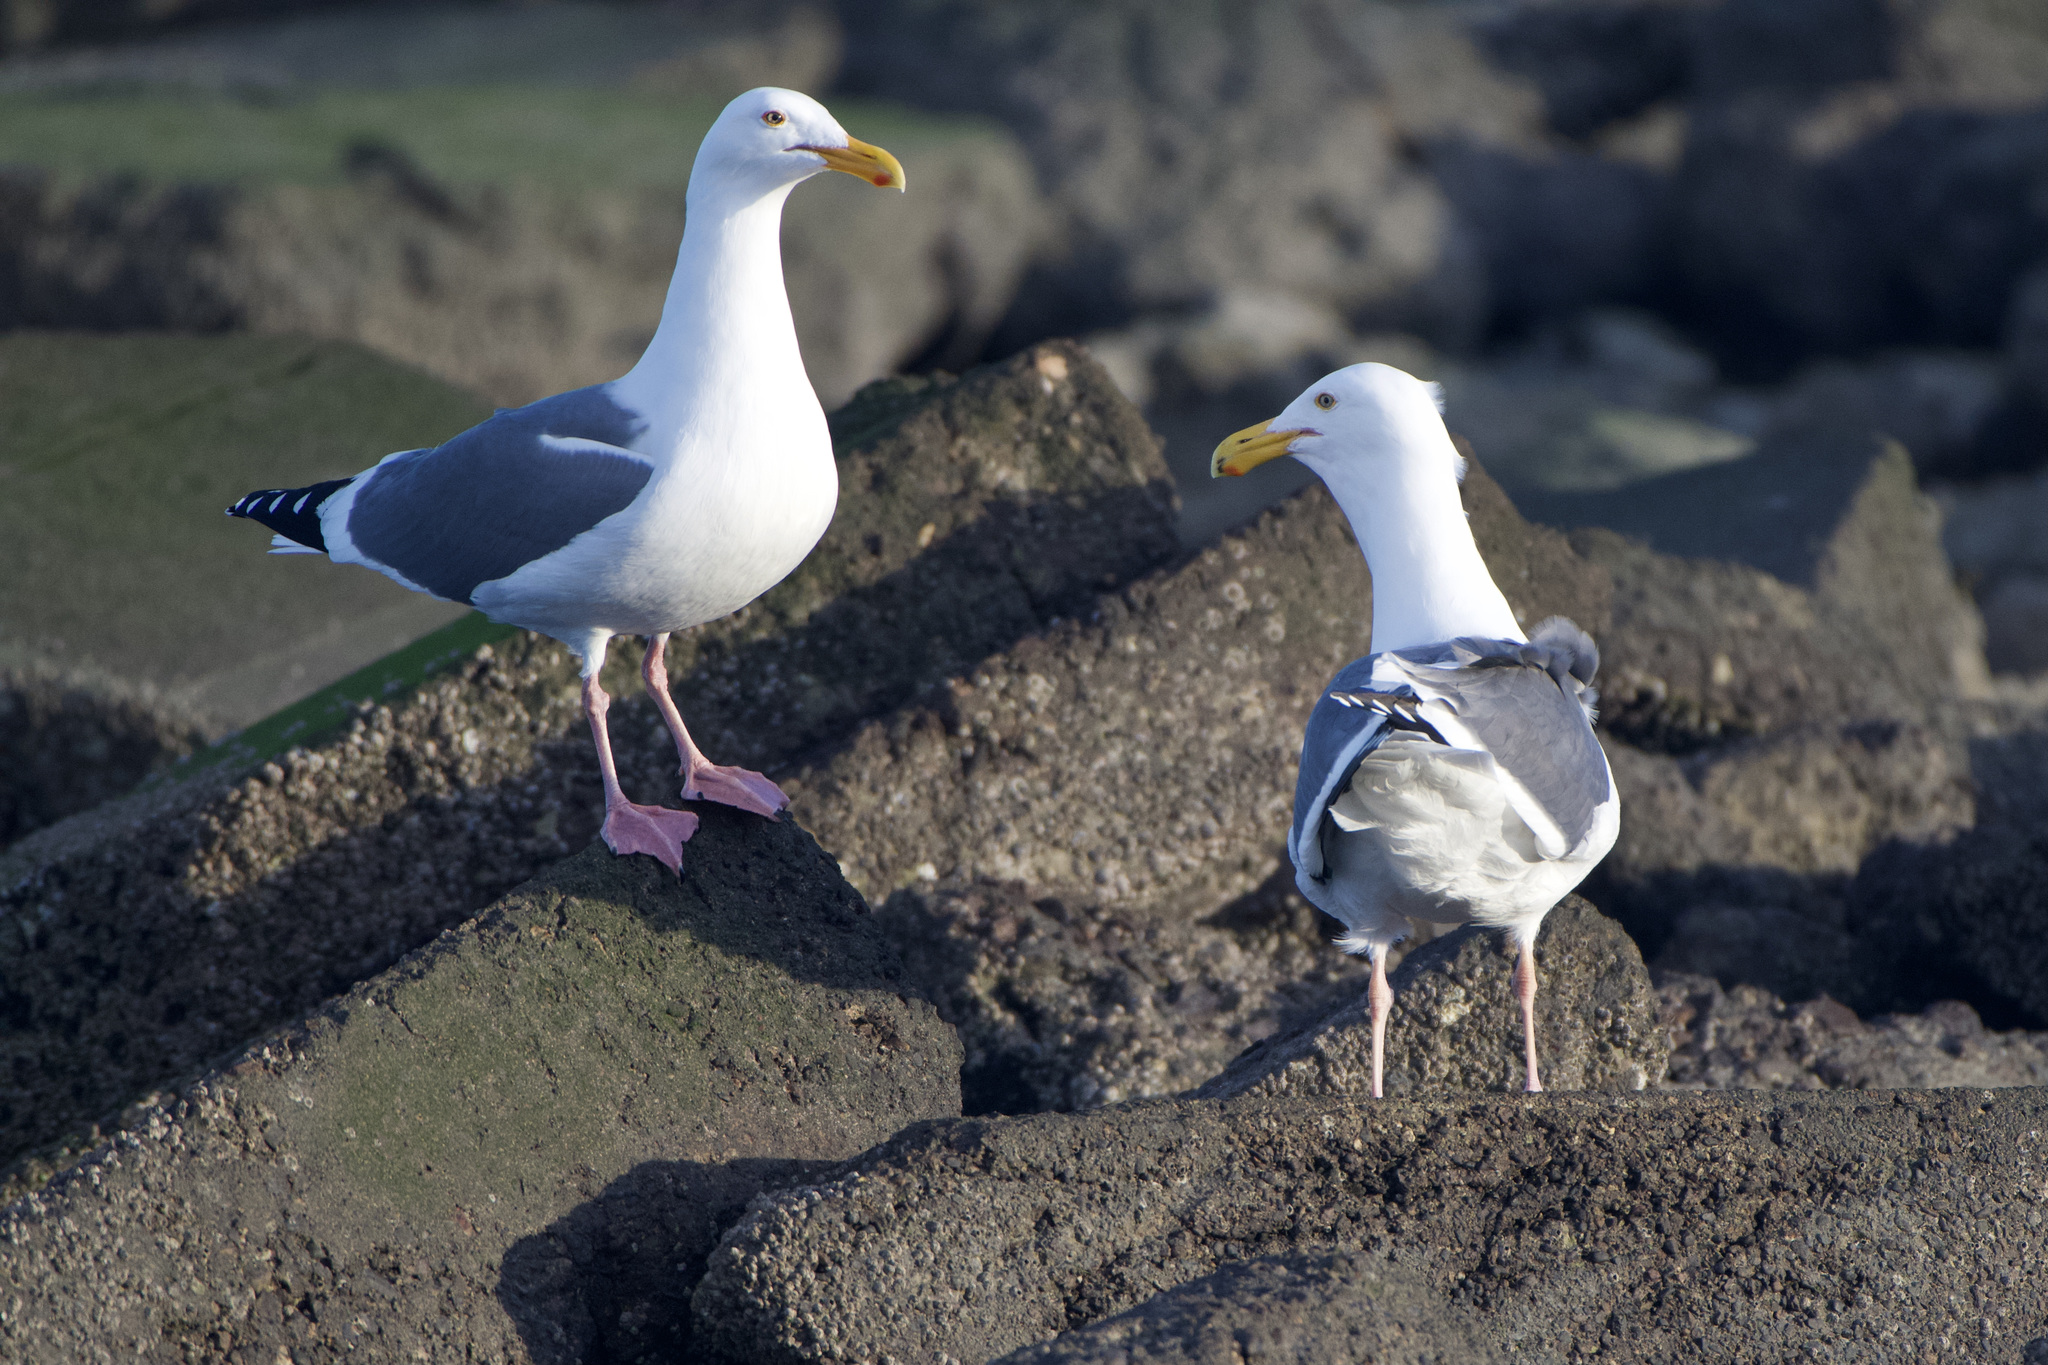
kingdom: Animalia
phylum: Chordata
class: Aves
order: Charadriiformes
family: Laridae
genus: Larus
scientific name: Larus occidentalis
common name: Western gull
